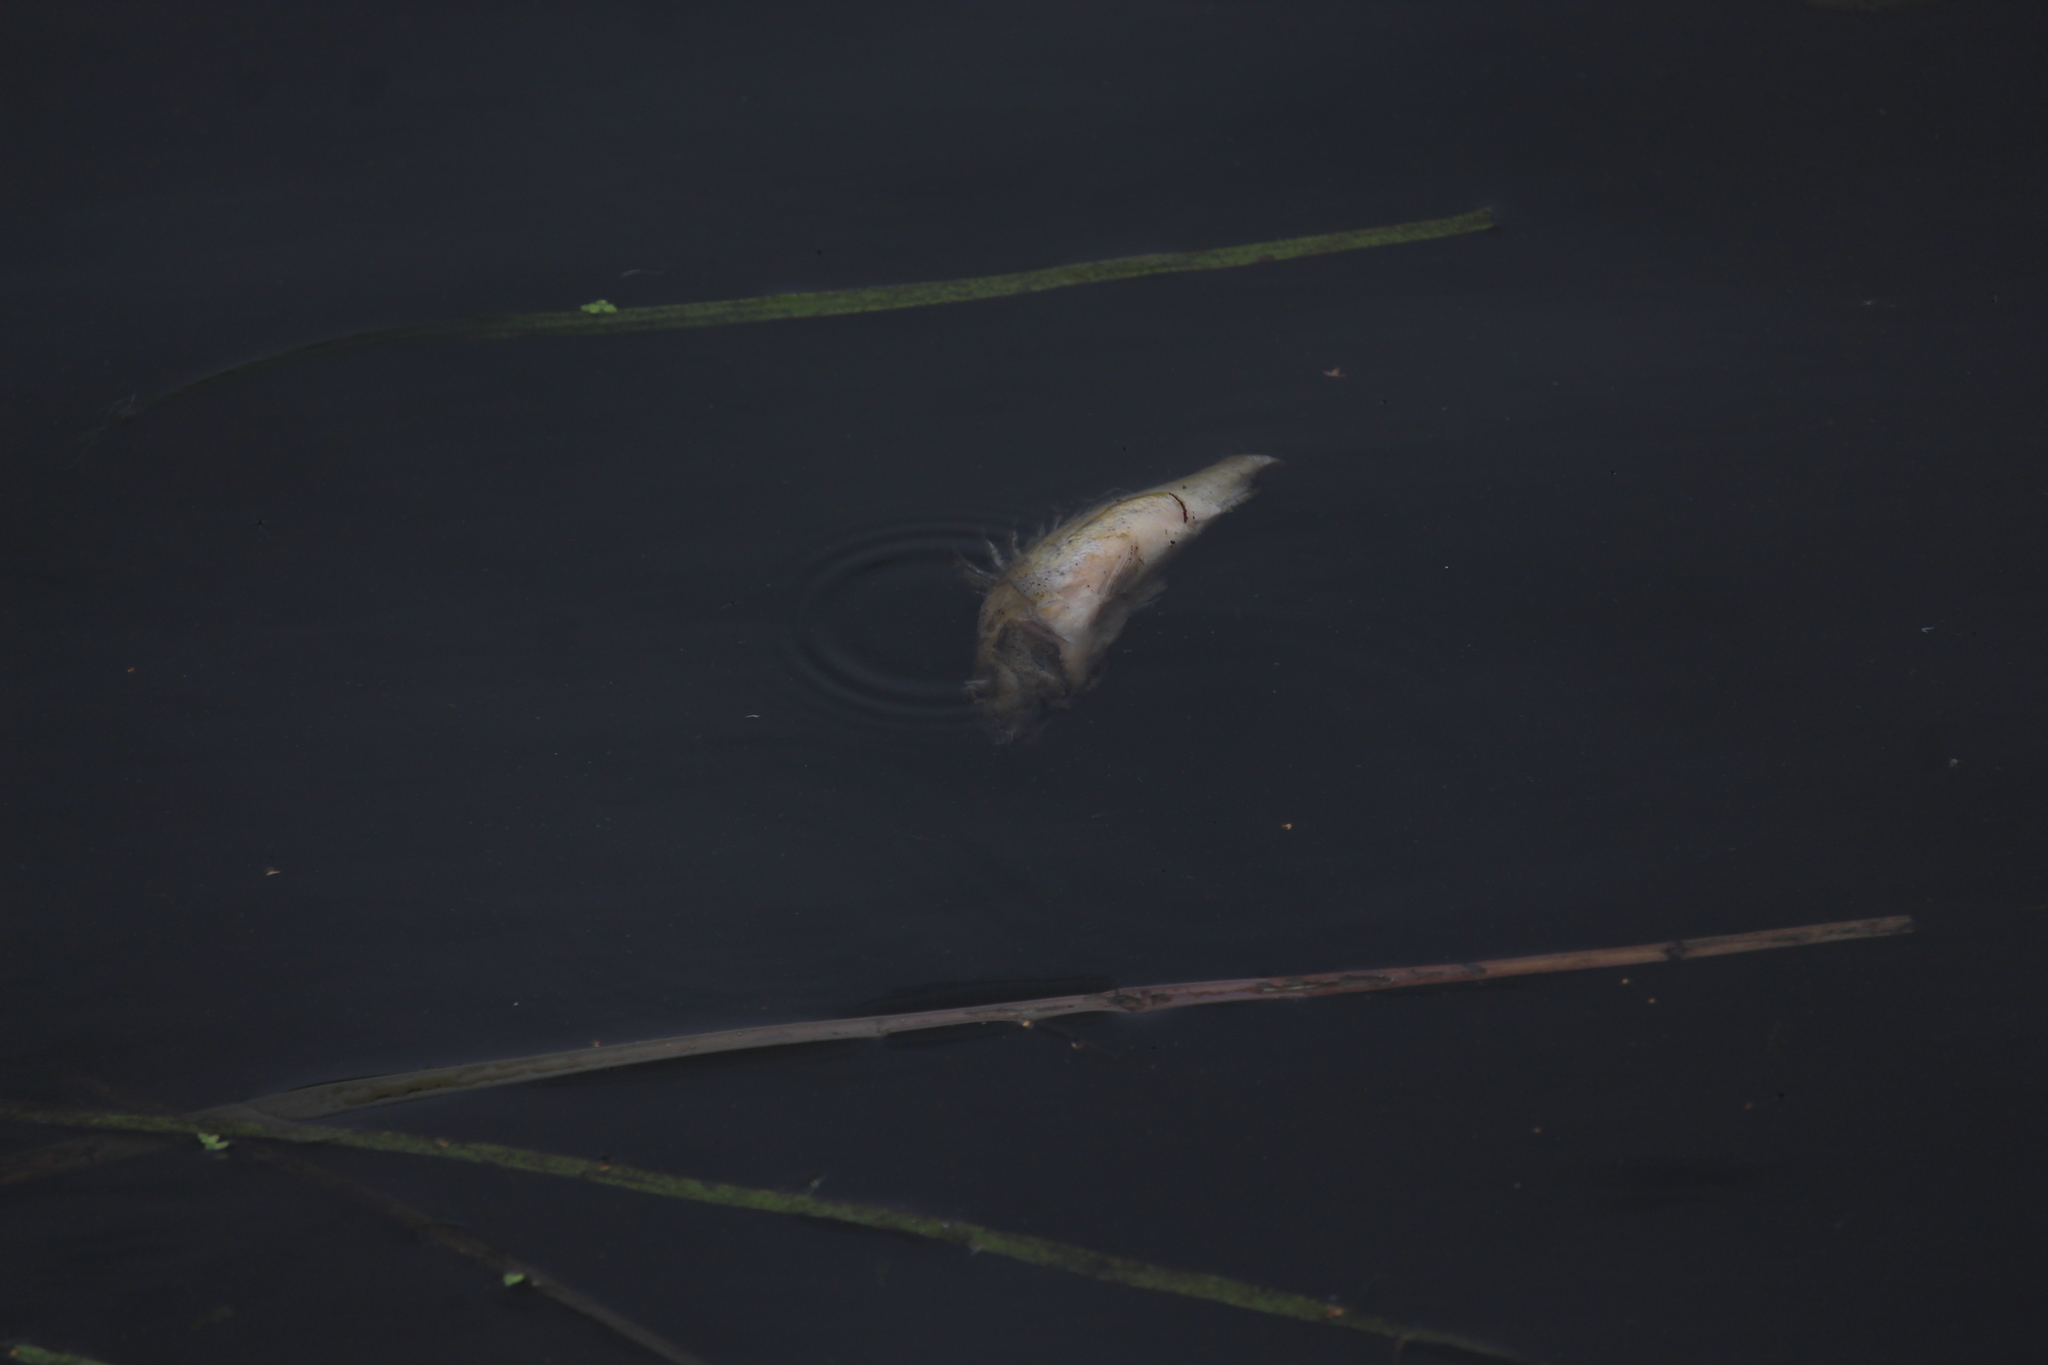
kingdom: Animalia
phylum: Chordata
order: Perciformes
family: Percidae
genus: Gymnocephalus
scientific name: Gymnocephalus cernua
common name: Ruffe
